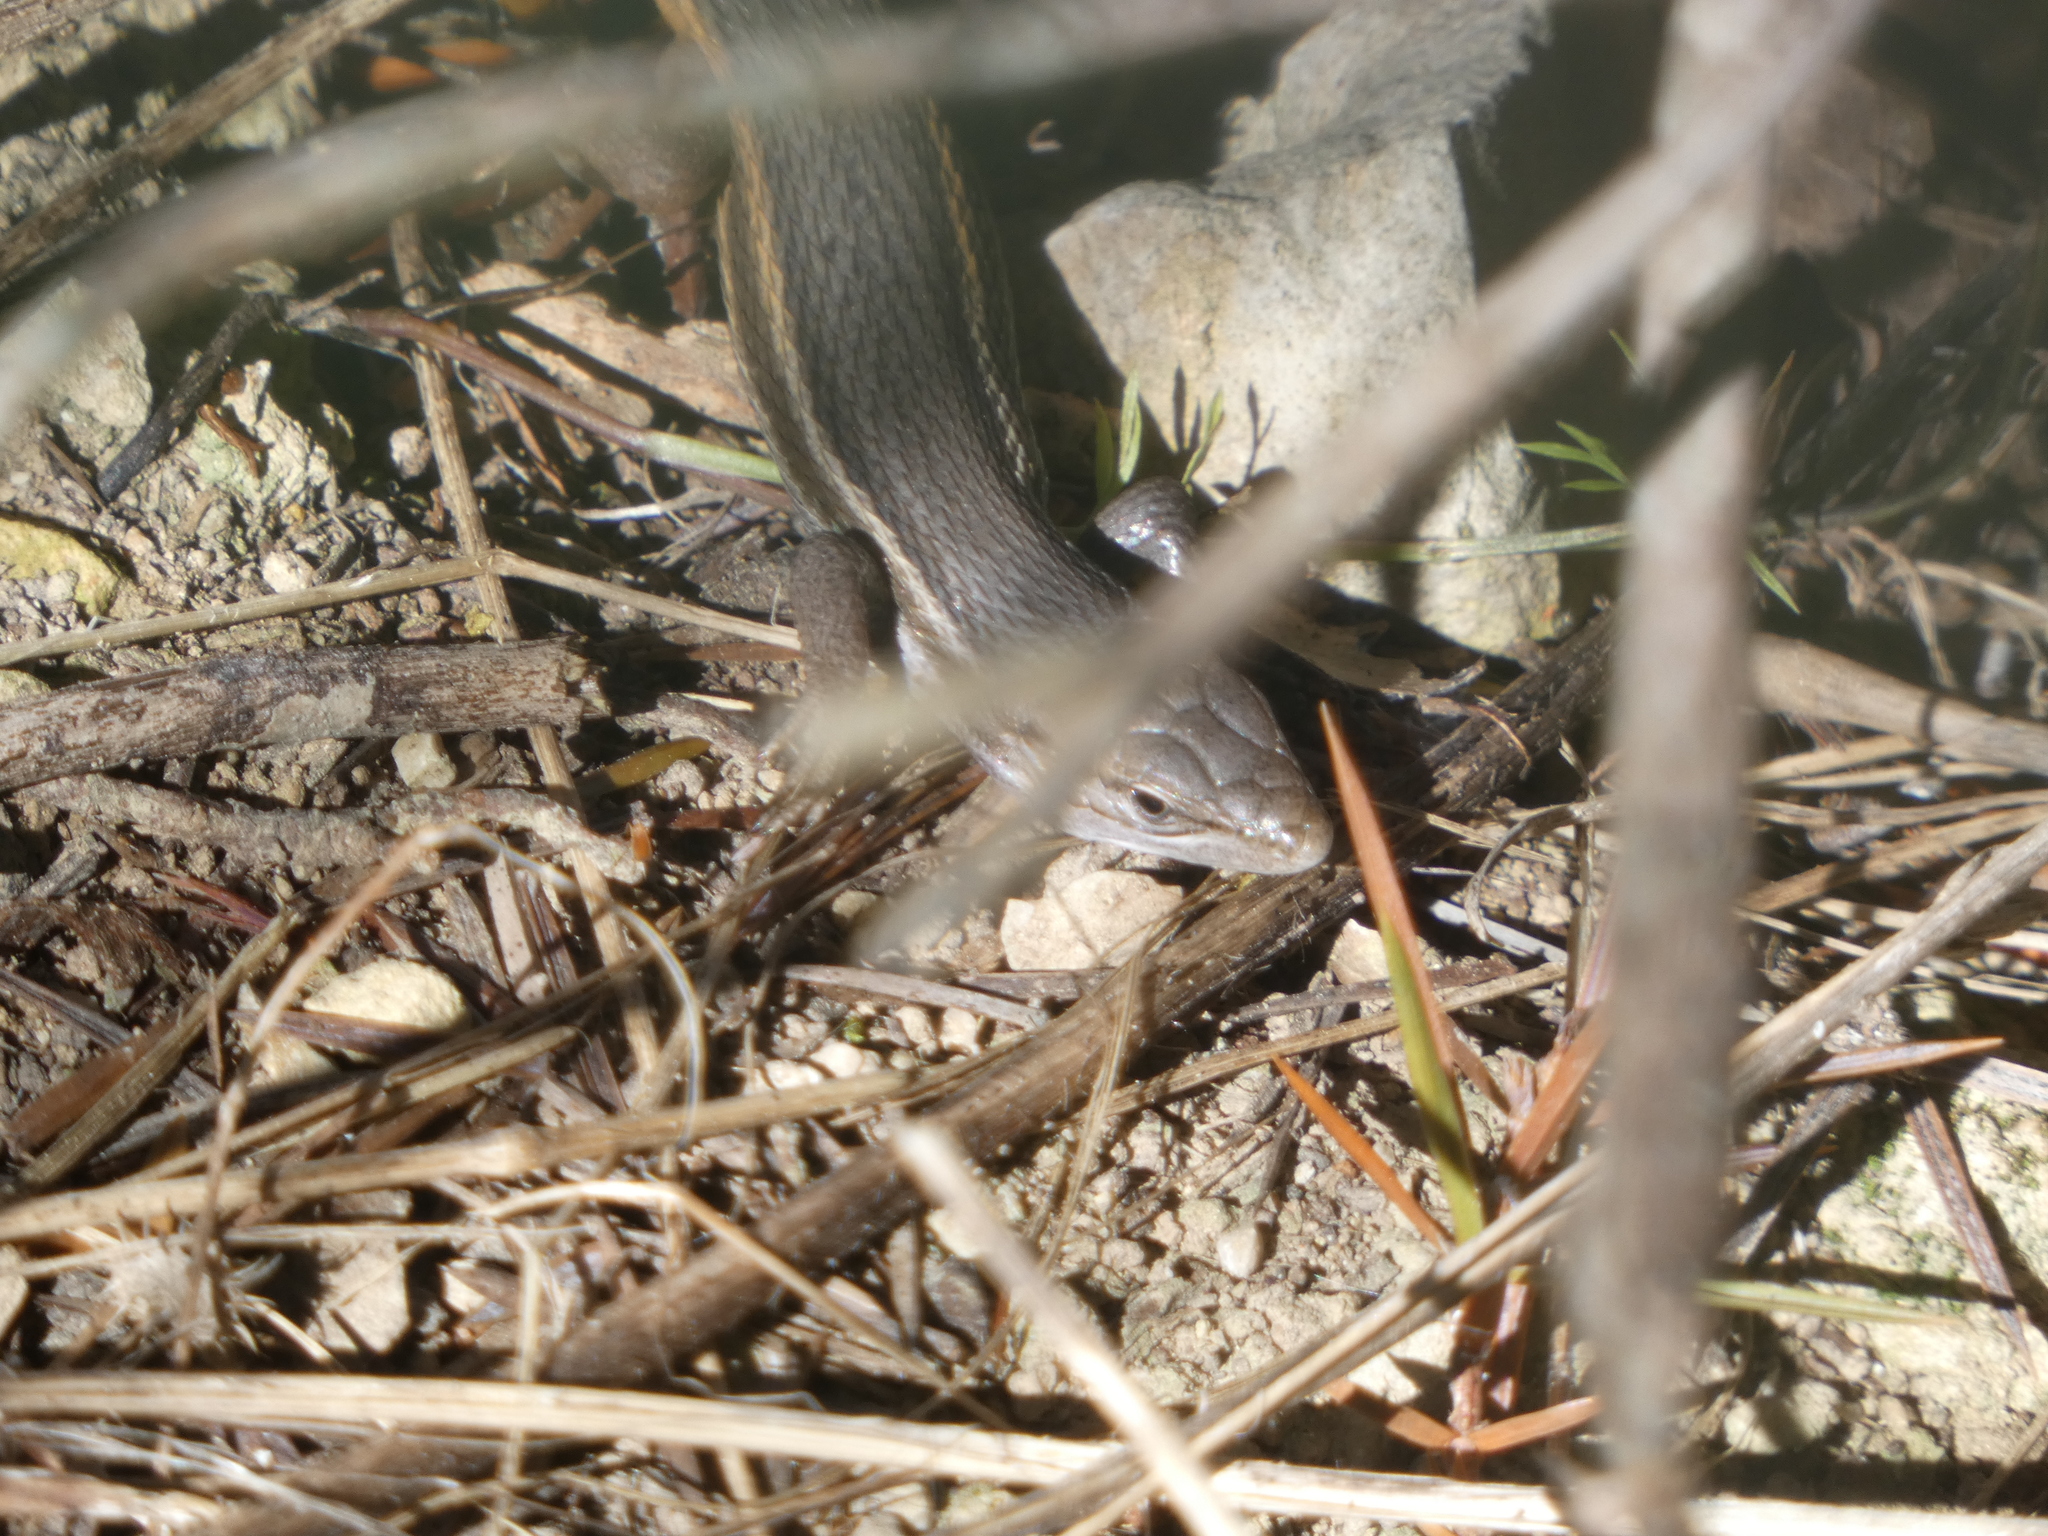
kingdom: Animalia
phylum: Chordata
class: Squamata
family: Lacertidae
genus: Psammodromus
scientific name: Psammodromus algirus
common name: Algerian psammodromus
